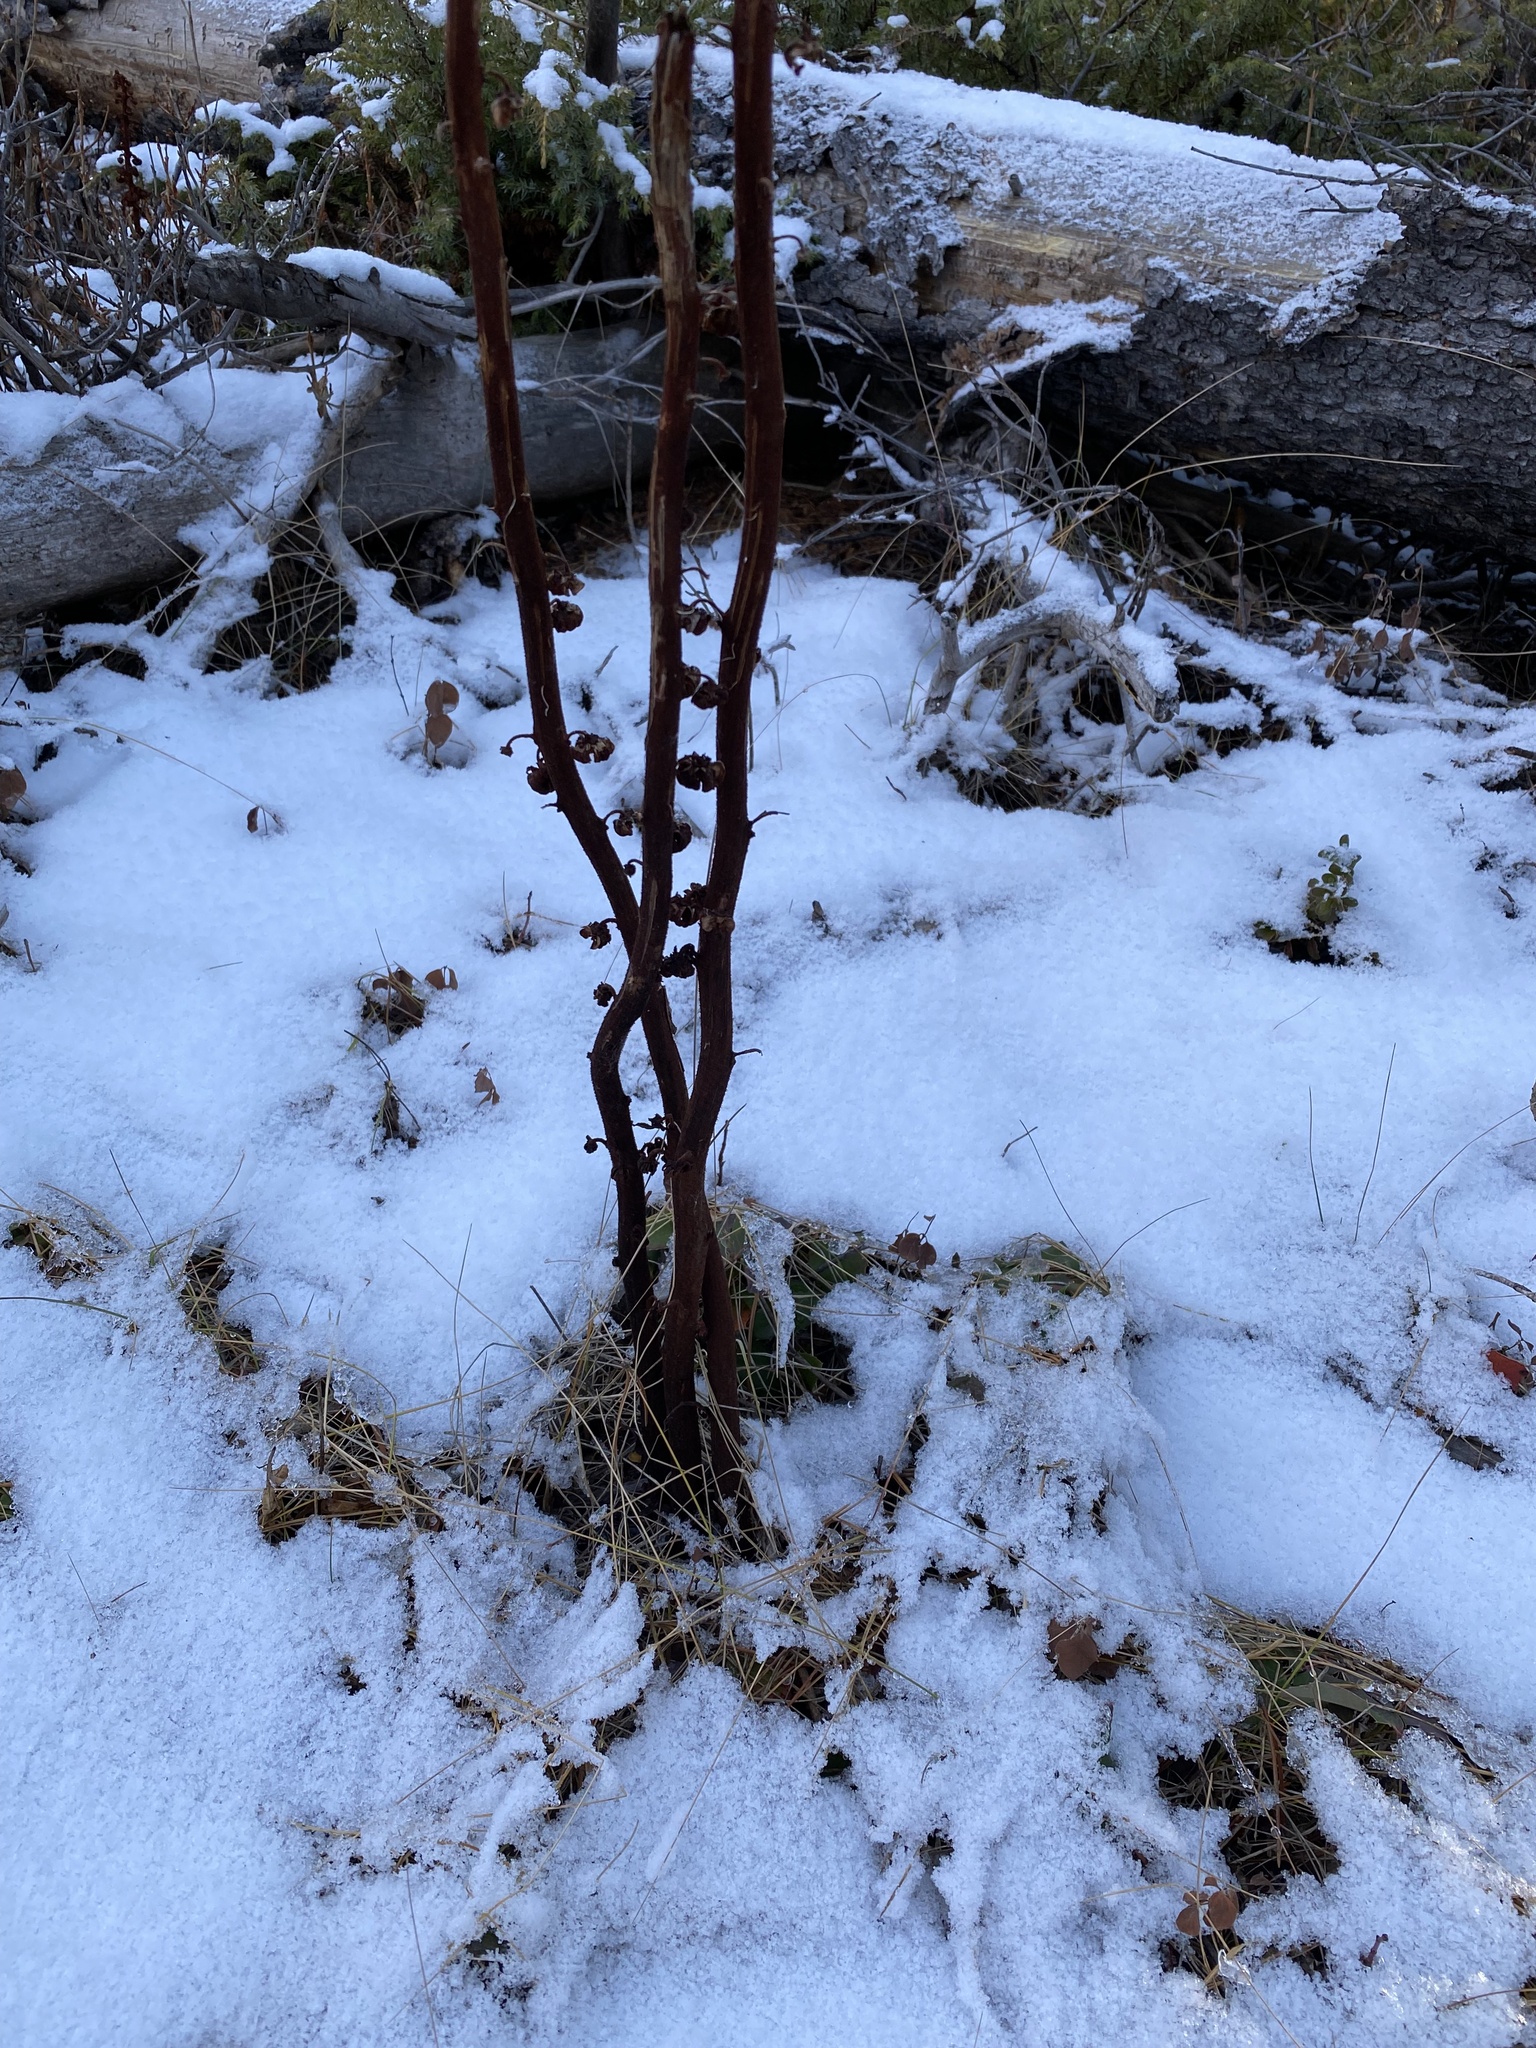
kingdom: Plantae
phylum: Tracheophyta
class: Magnoliopsida
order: Ericales
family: Ericaceae
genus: Pterospora
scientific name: Pterospora andromedea
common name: Giant bird's-nest
